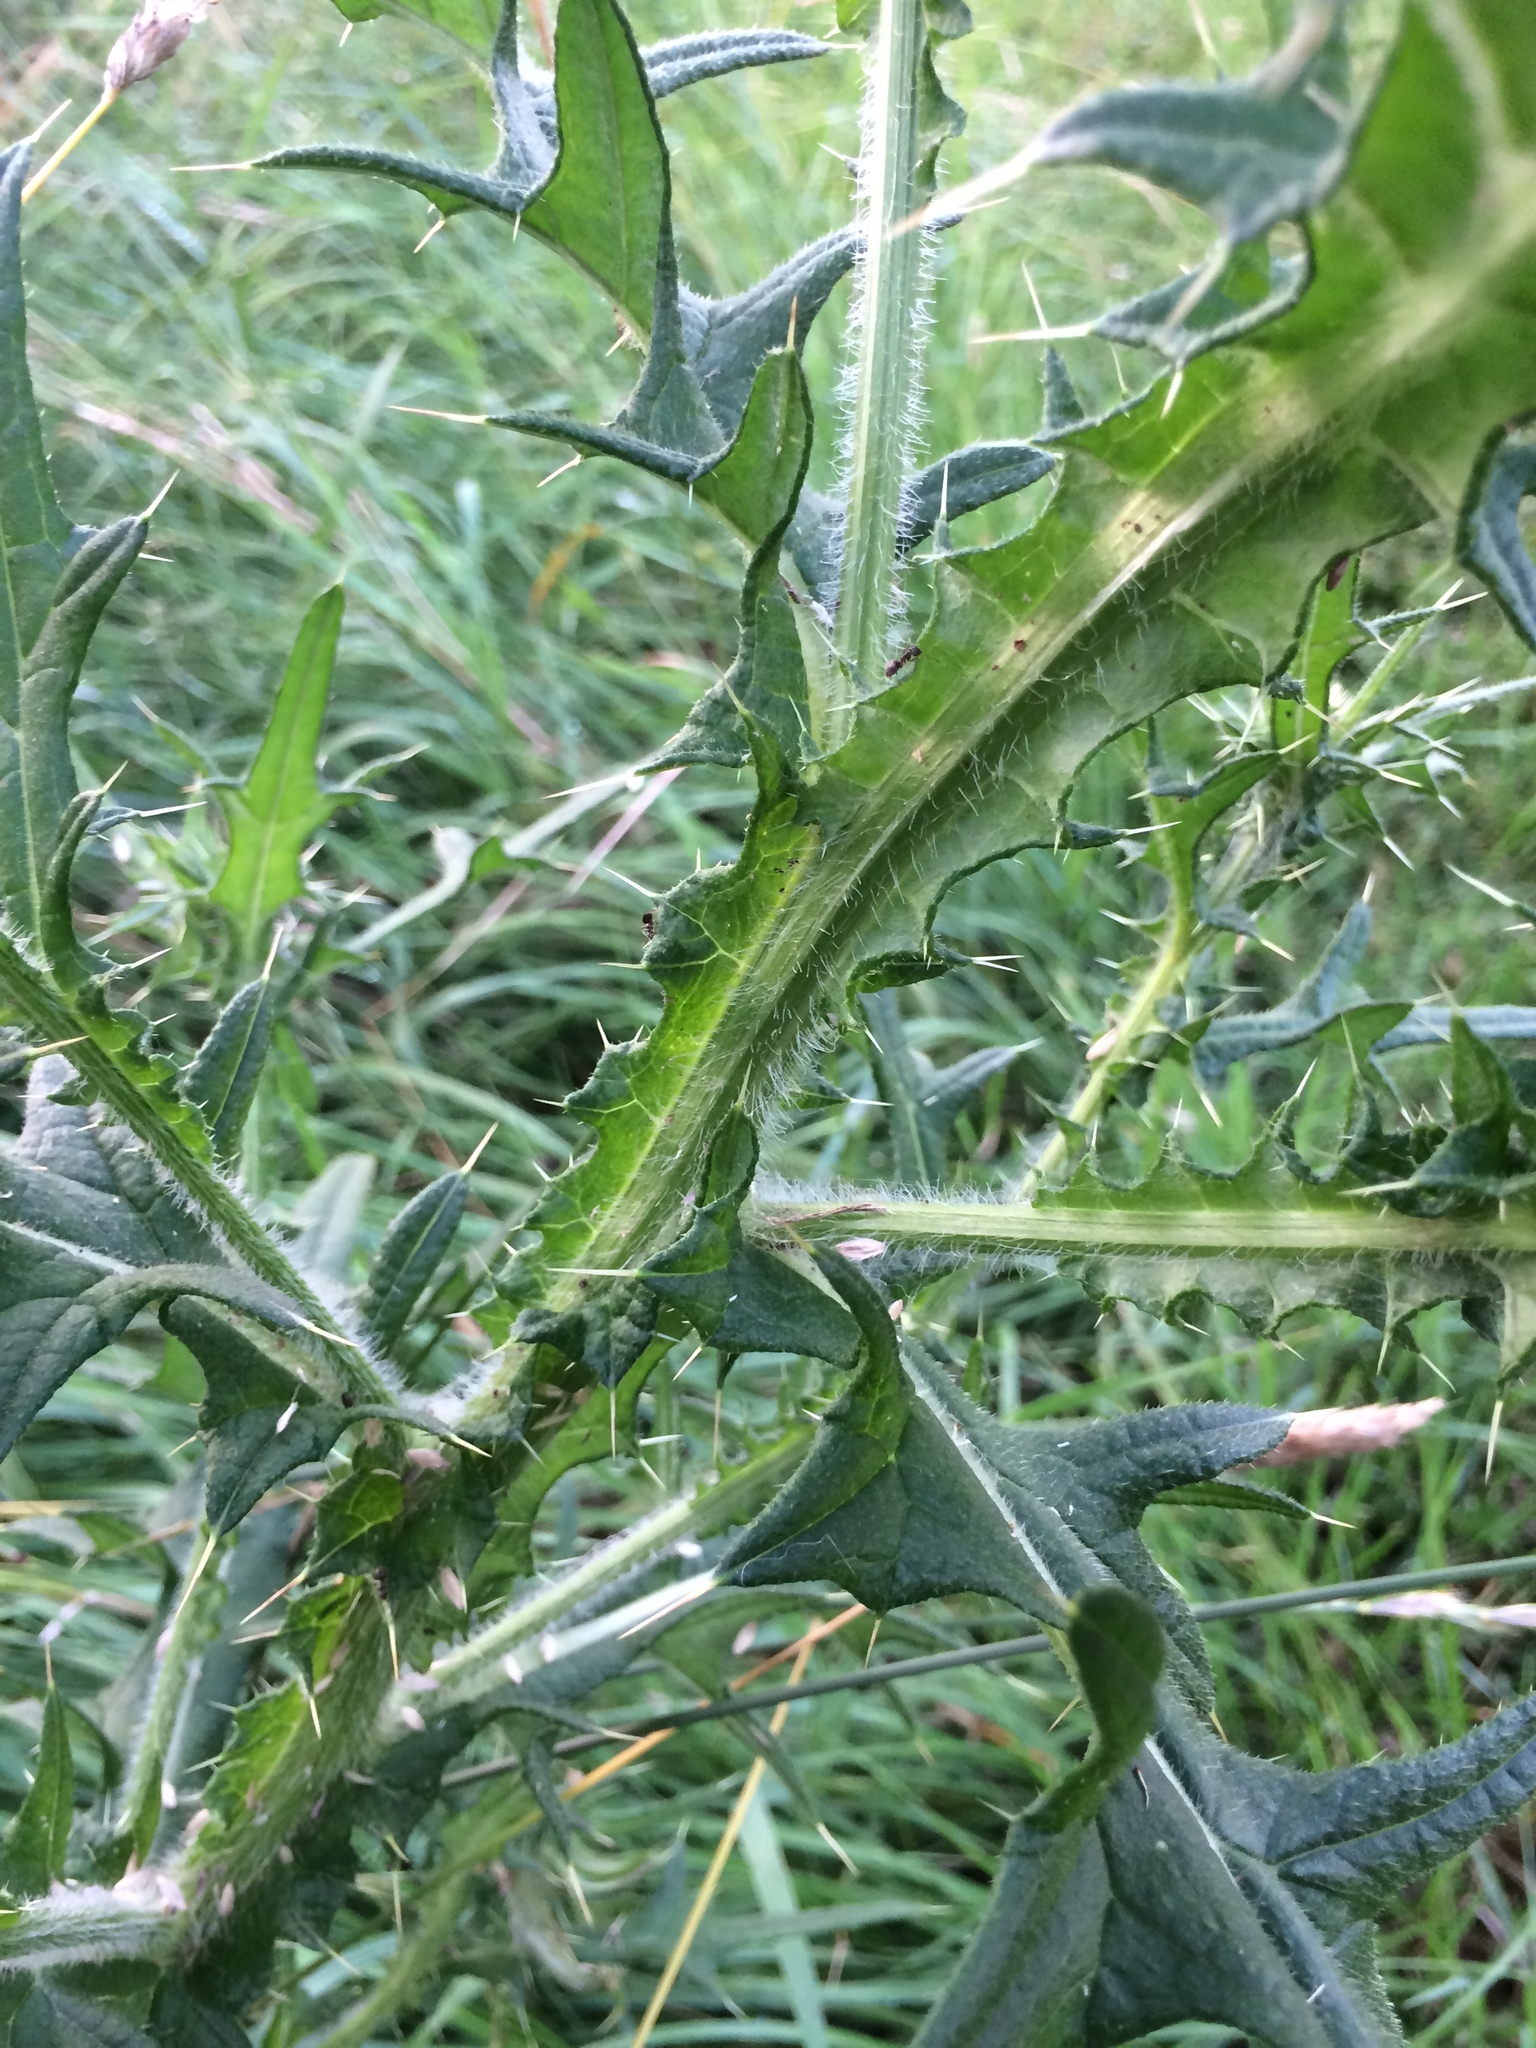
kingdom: Plantae
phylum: Tracheophyta
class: Magnoliopsida
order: Asterales
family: Asteraceae
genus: Cirsium
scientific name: Cirsium vulgare
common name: Bull thistle
